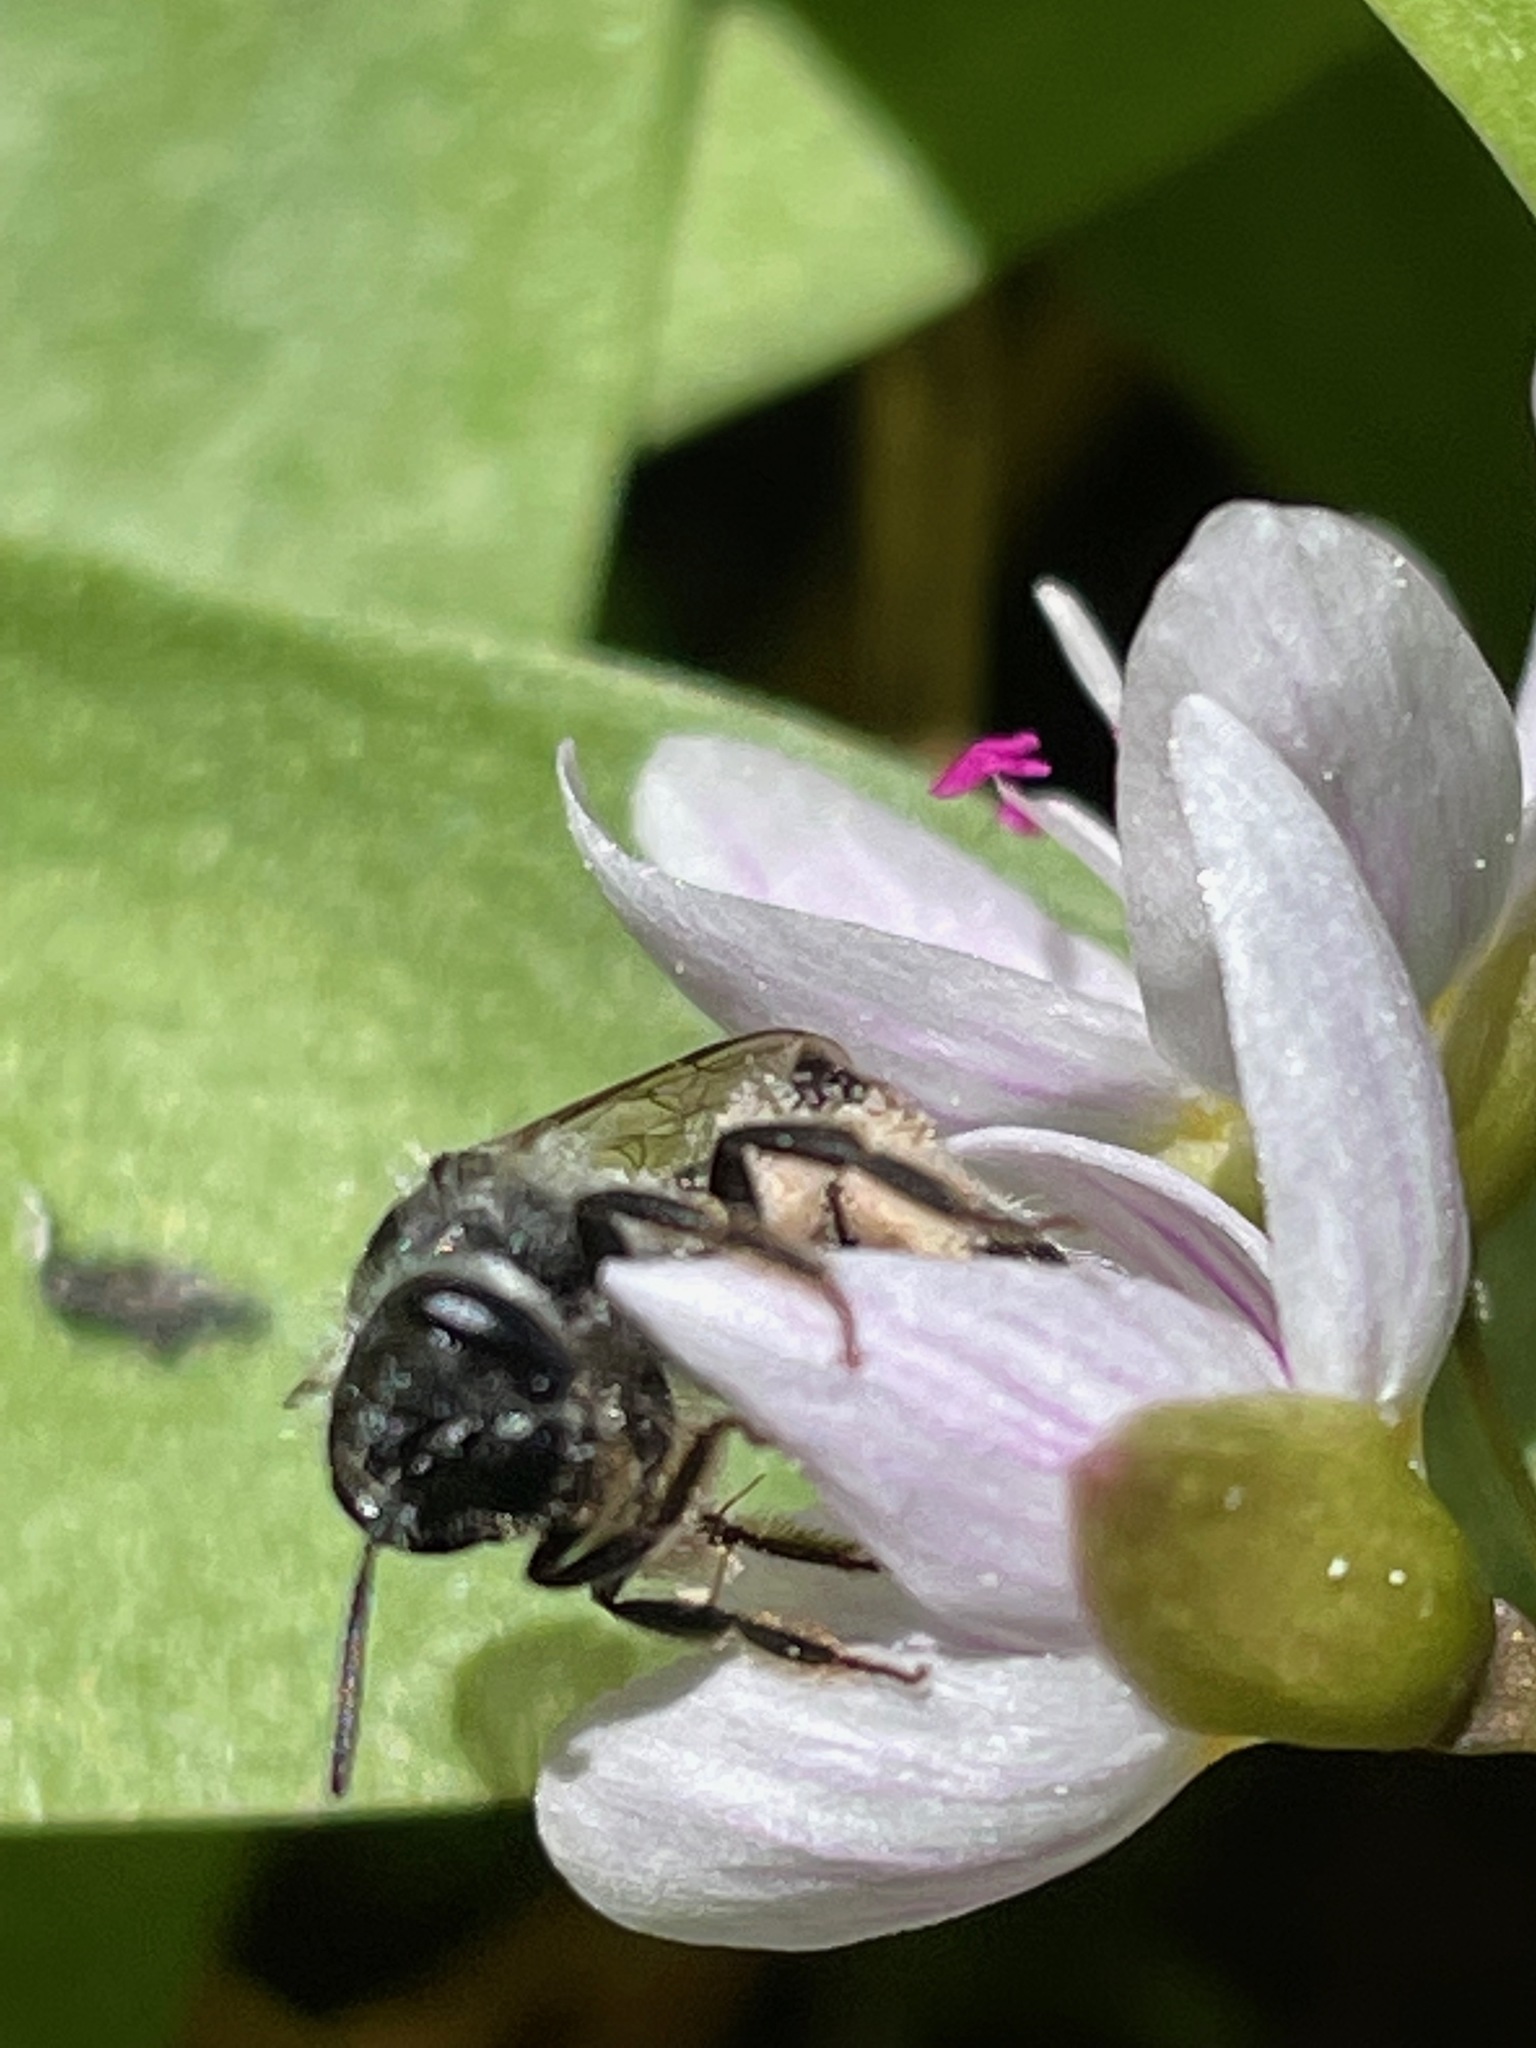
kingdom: Animalia
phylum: Arthropoda
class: Insecta
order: Hymenoptera
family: Andrenidae
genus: Andrena
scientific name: Andrena erigeniae
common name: Spring beauty miner
